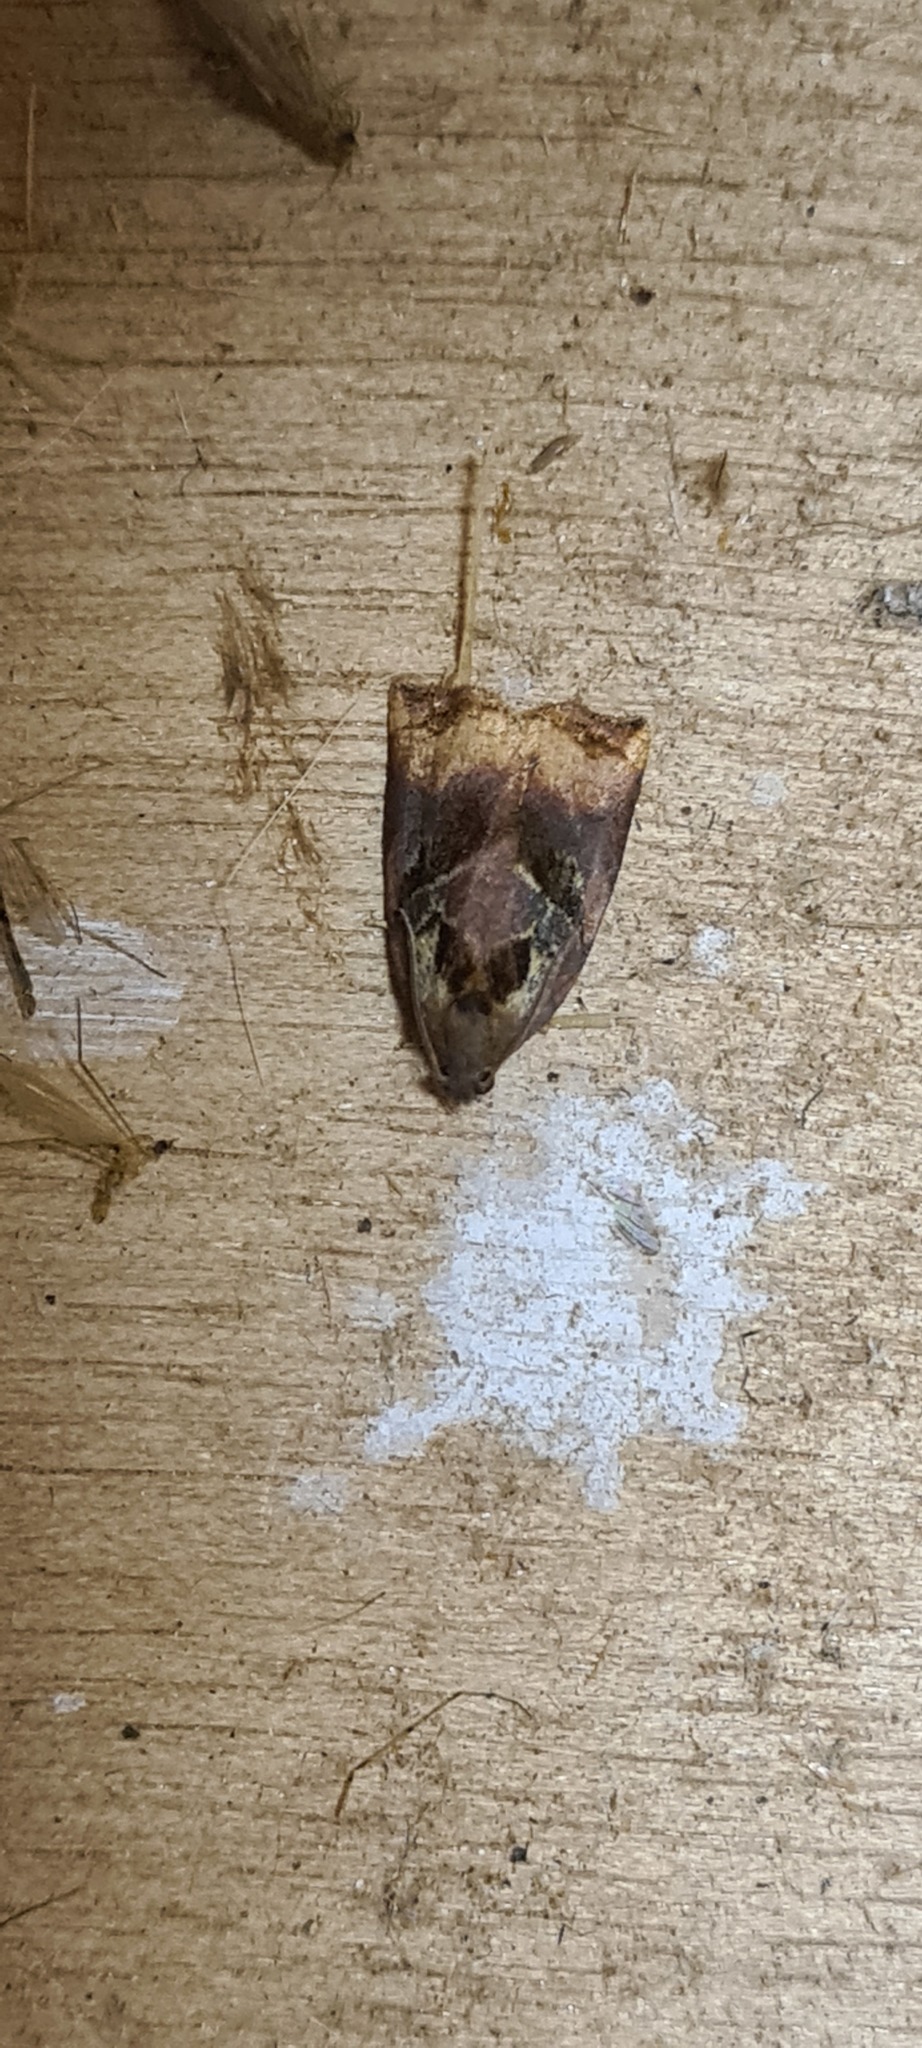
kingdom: Animalia
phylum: Arthropoda
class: Insecta
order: Lepidoptera
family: Tortricidae
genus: Archips
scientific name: Archips podana
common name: Large fruit-tree tortrix
